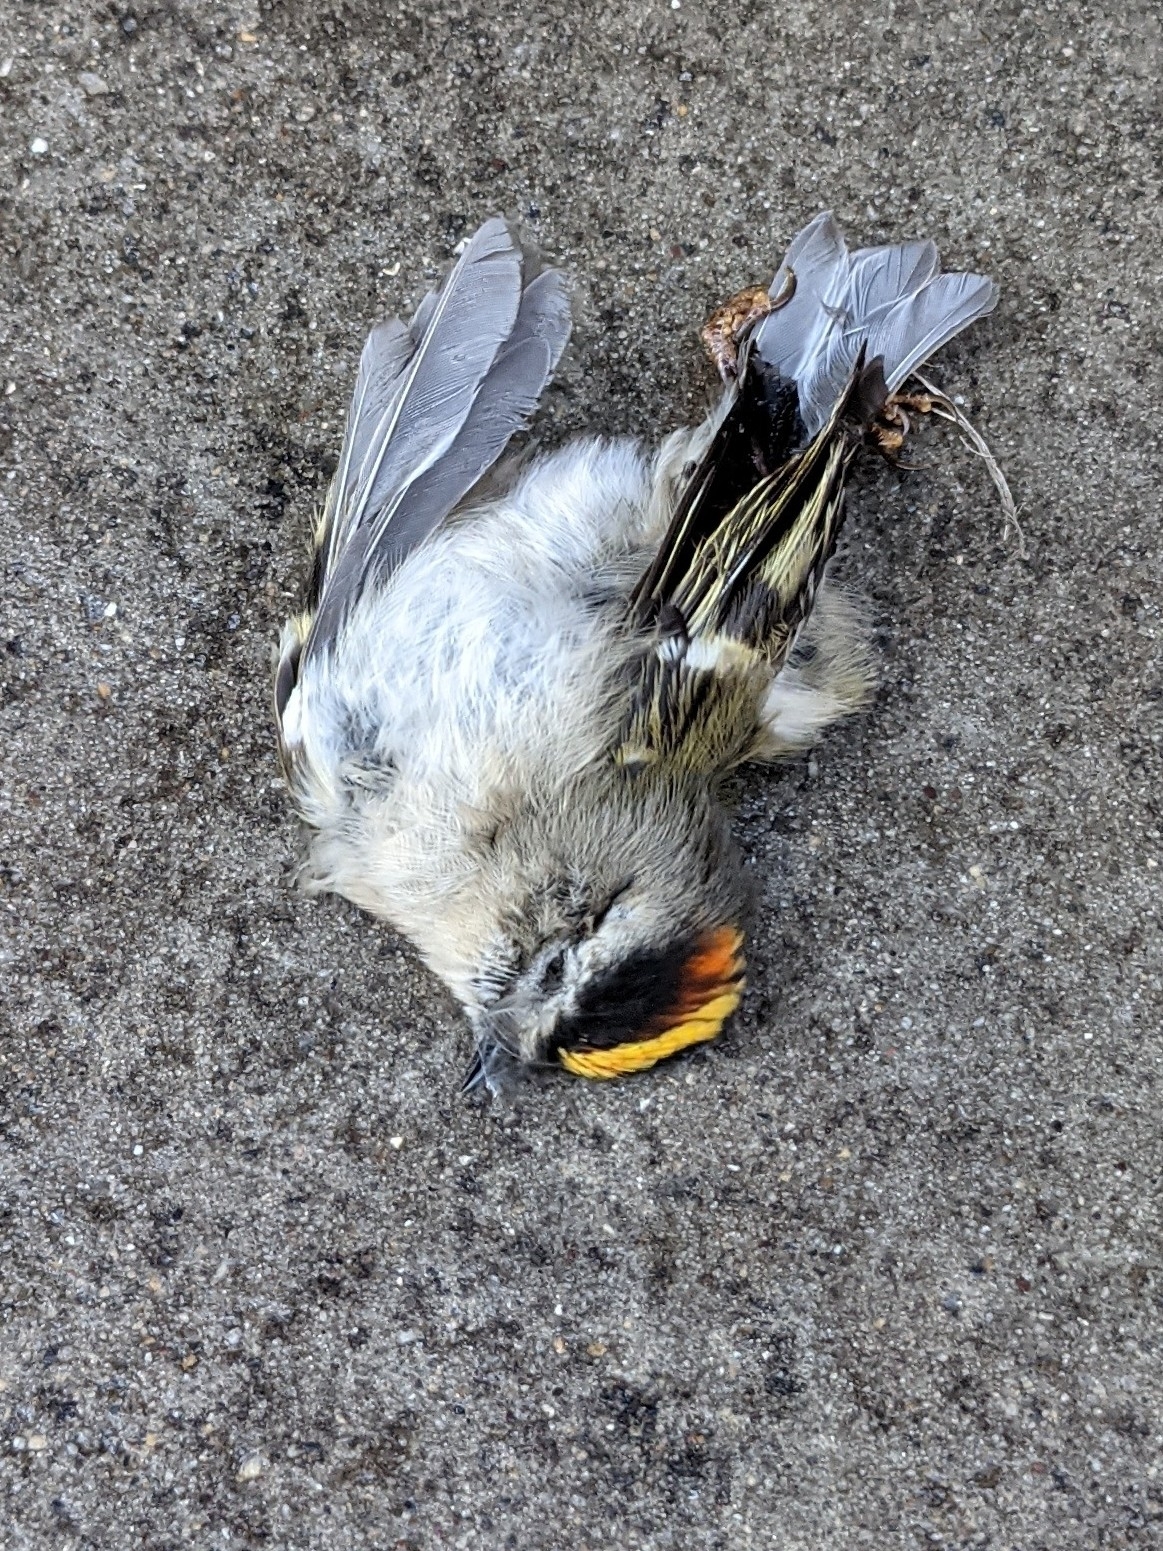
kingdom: Animalia
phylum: Chordata
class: Aves
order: Passeriformes
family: Regulidae
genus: Regulus
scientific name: Regulus satrapa
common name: Golden-crowned kinglet
